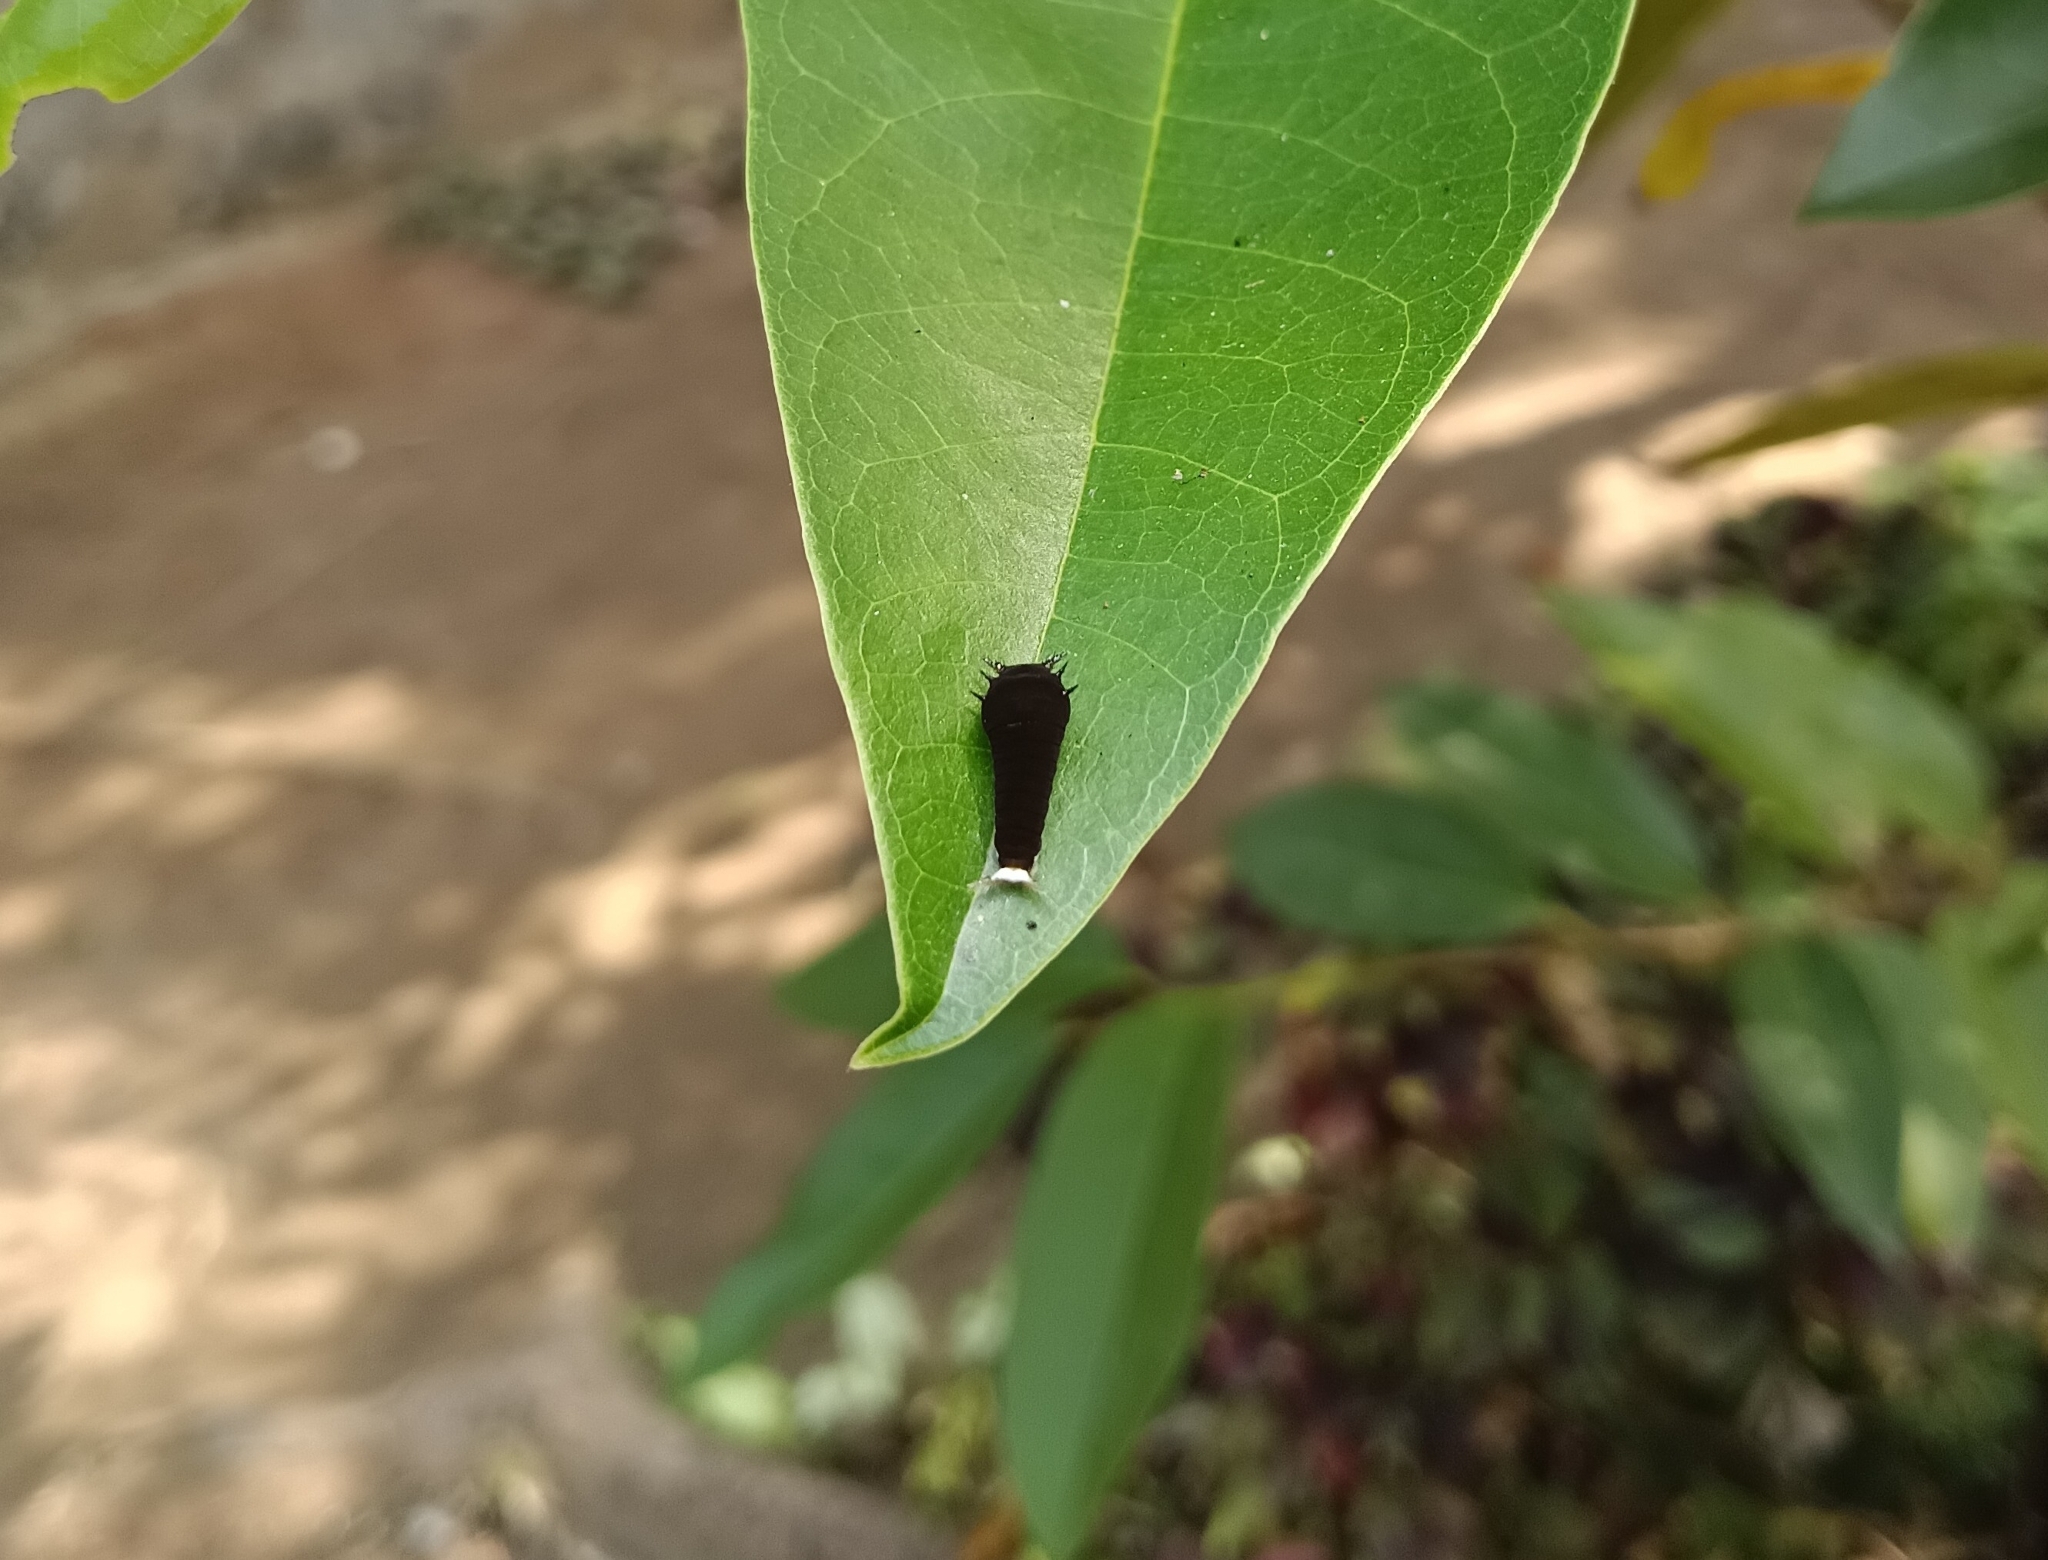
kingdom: Animalia
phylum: Arthropoda
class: Insecta
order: Lepidoptera
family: Papilionidae
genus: Graphium
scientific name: Graphium doson
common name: Common jay
